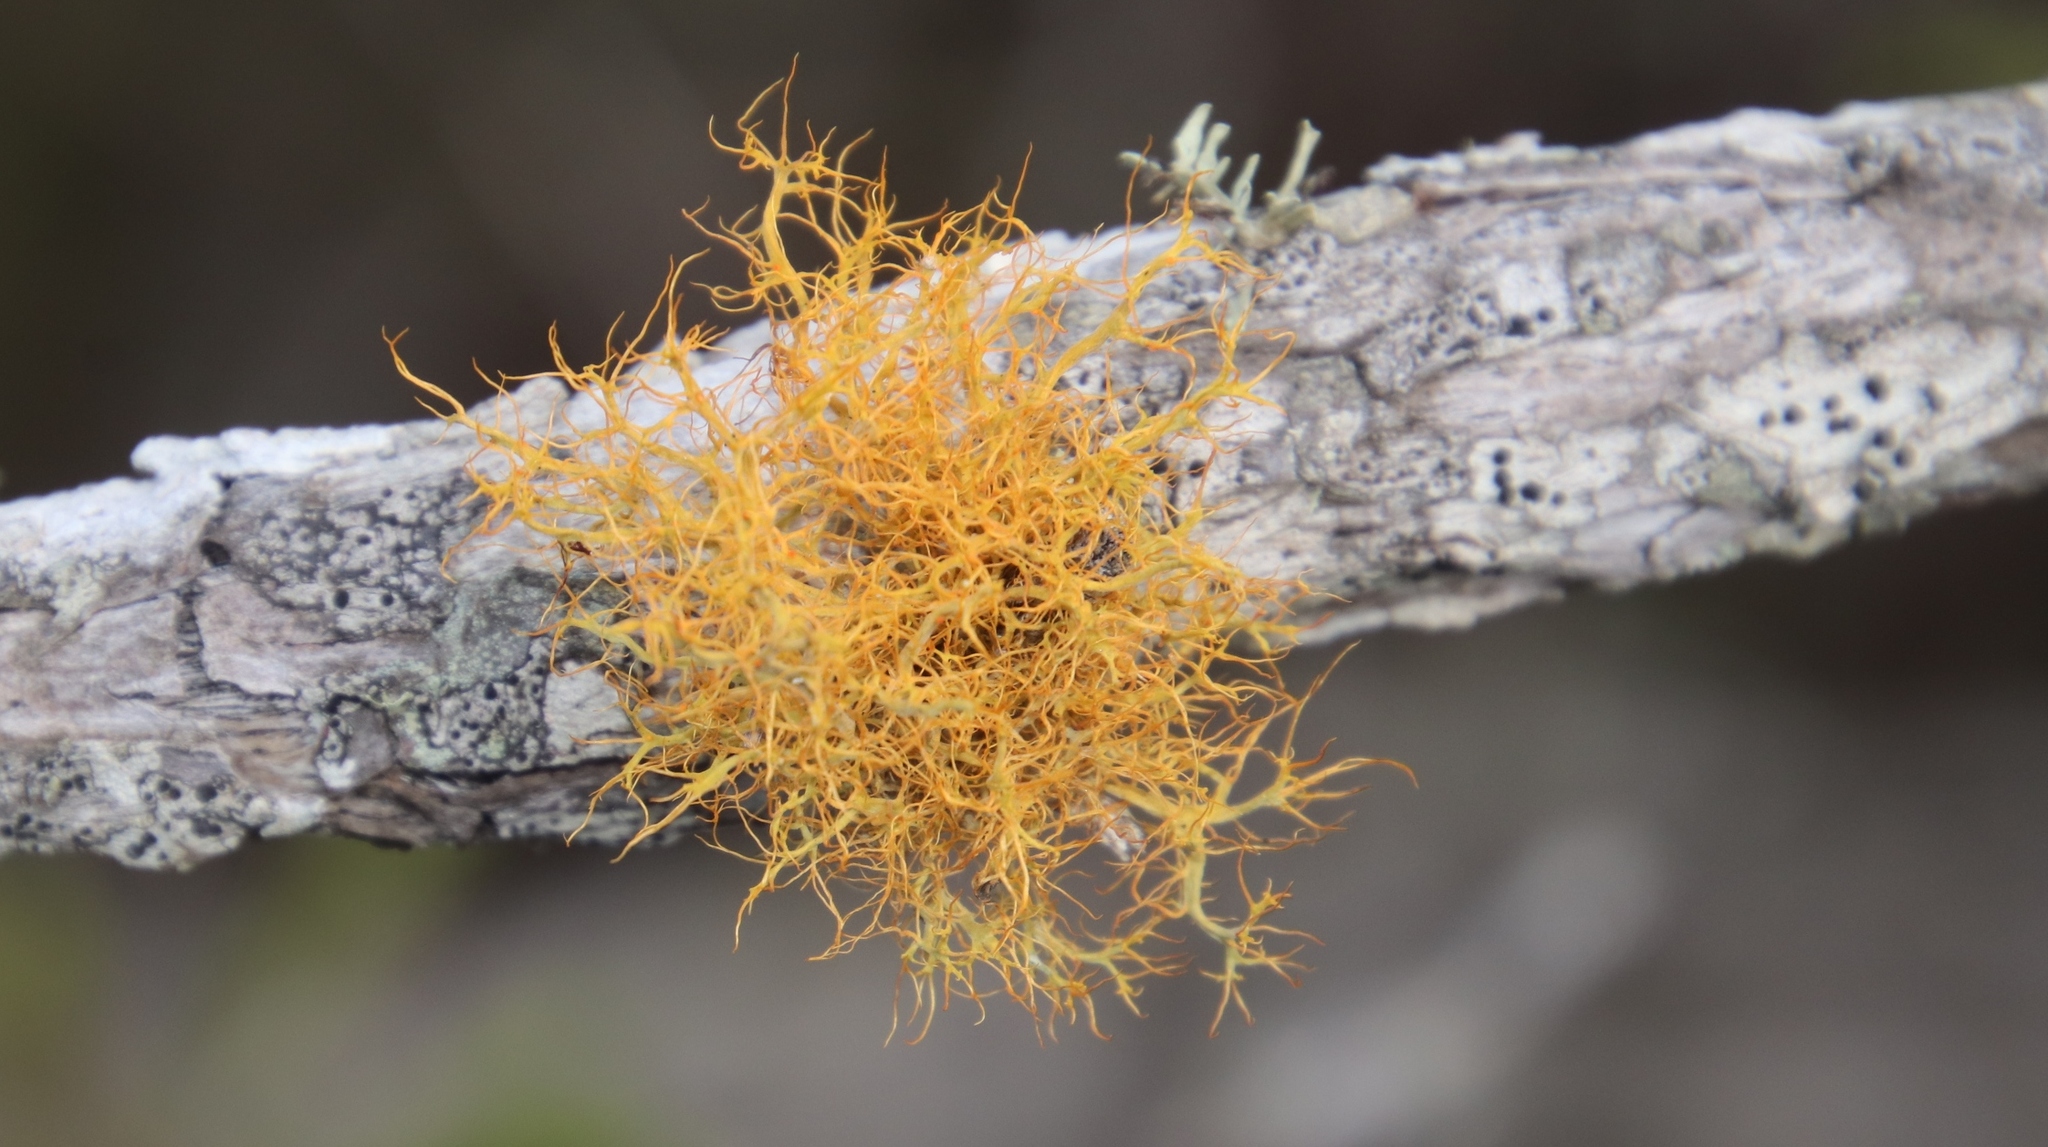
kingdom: Fungi
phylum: Ascomycota
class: Lecanoromycetes
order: Teloschistales
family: Teloschistaceae
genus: Teloschistes
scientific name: Teloschistes capensis
